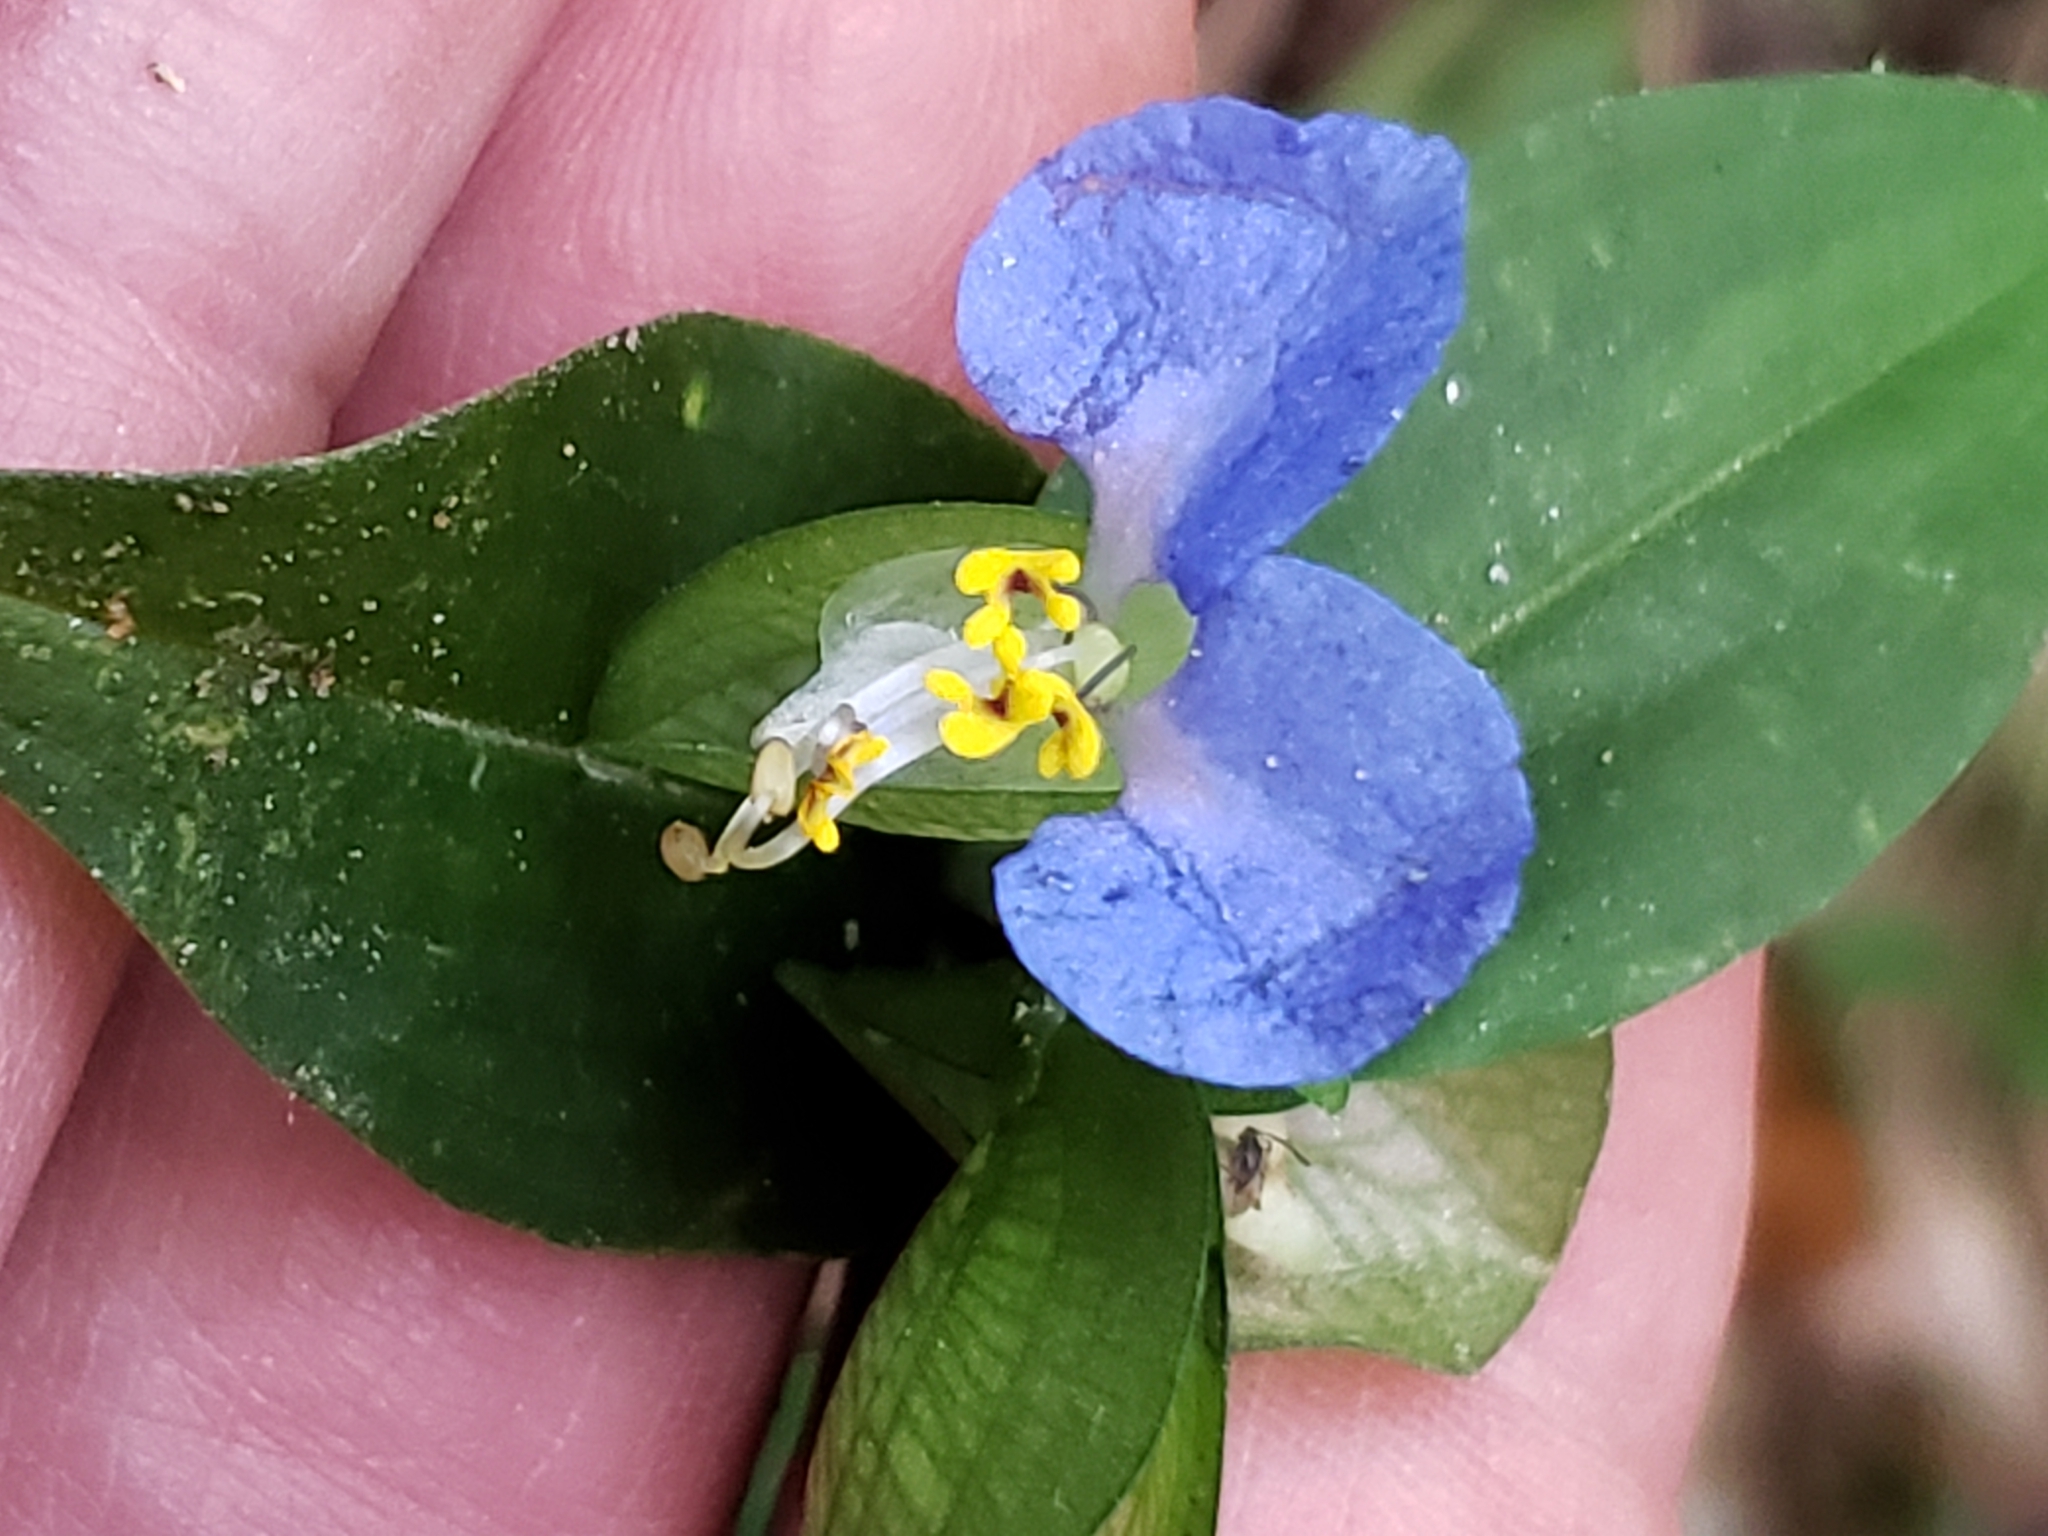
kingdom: Plantae
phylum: Tracheophyta
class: Liliopsida
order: Commelinales
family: Commelinaceae
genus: Commelina
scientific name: Commelina communis
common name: Asiatic dayflower
